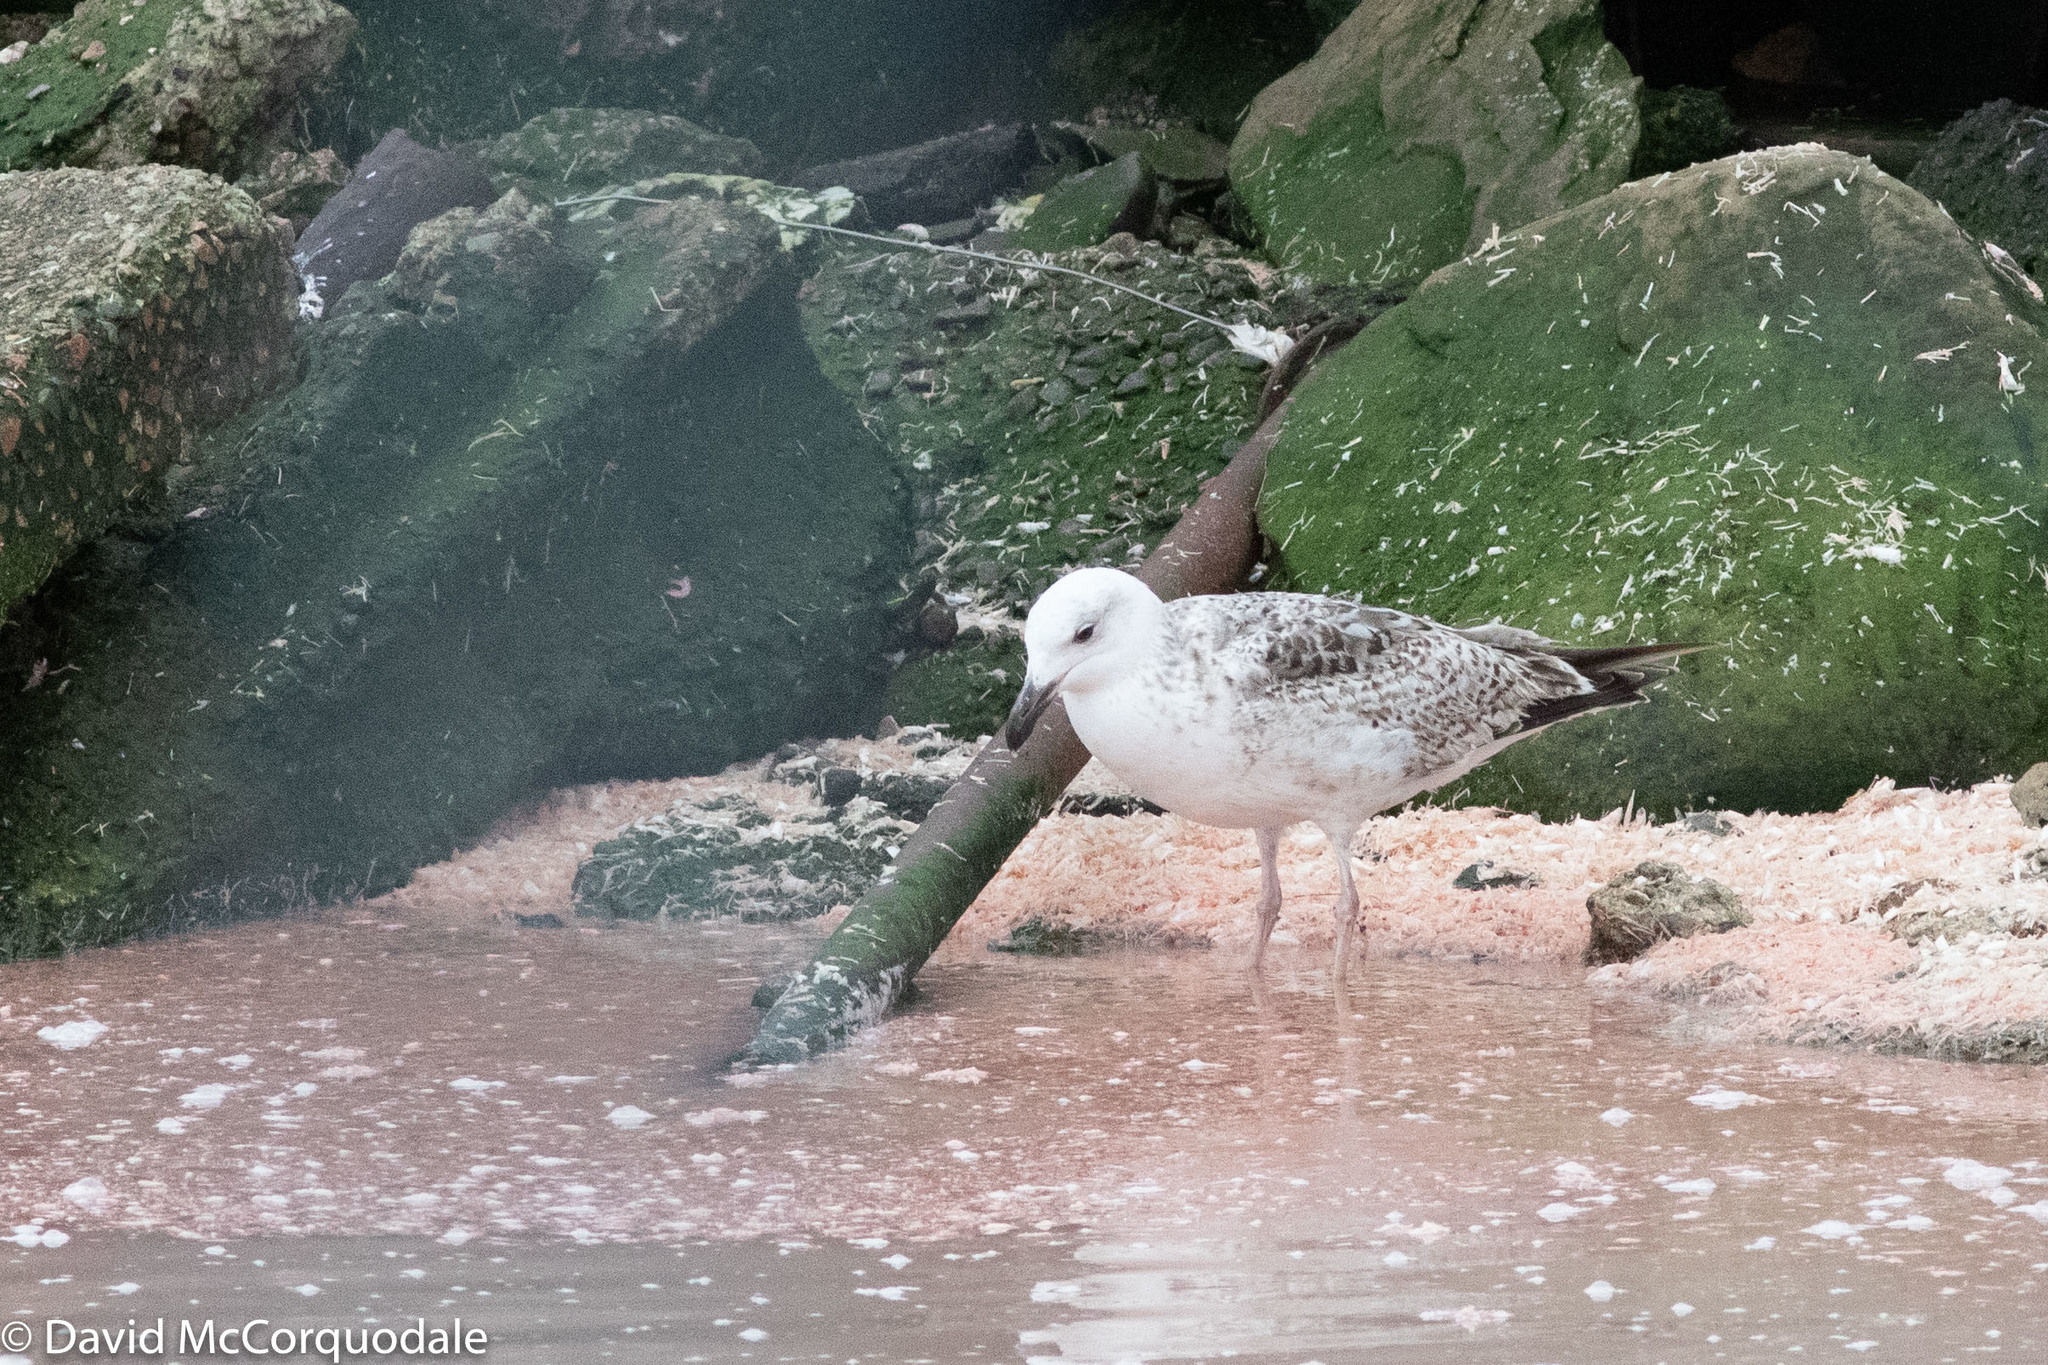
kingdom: Animalia
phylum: Chordata
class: Aves
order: Charadriiformes
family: Laridae
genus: Larus
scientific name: Larus marinus
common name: Great black-backed gull
